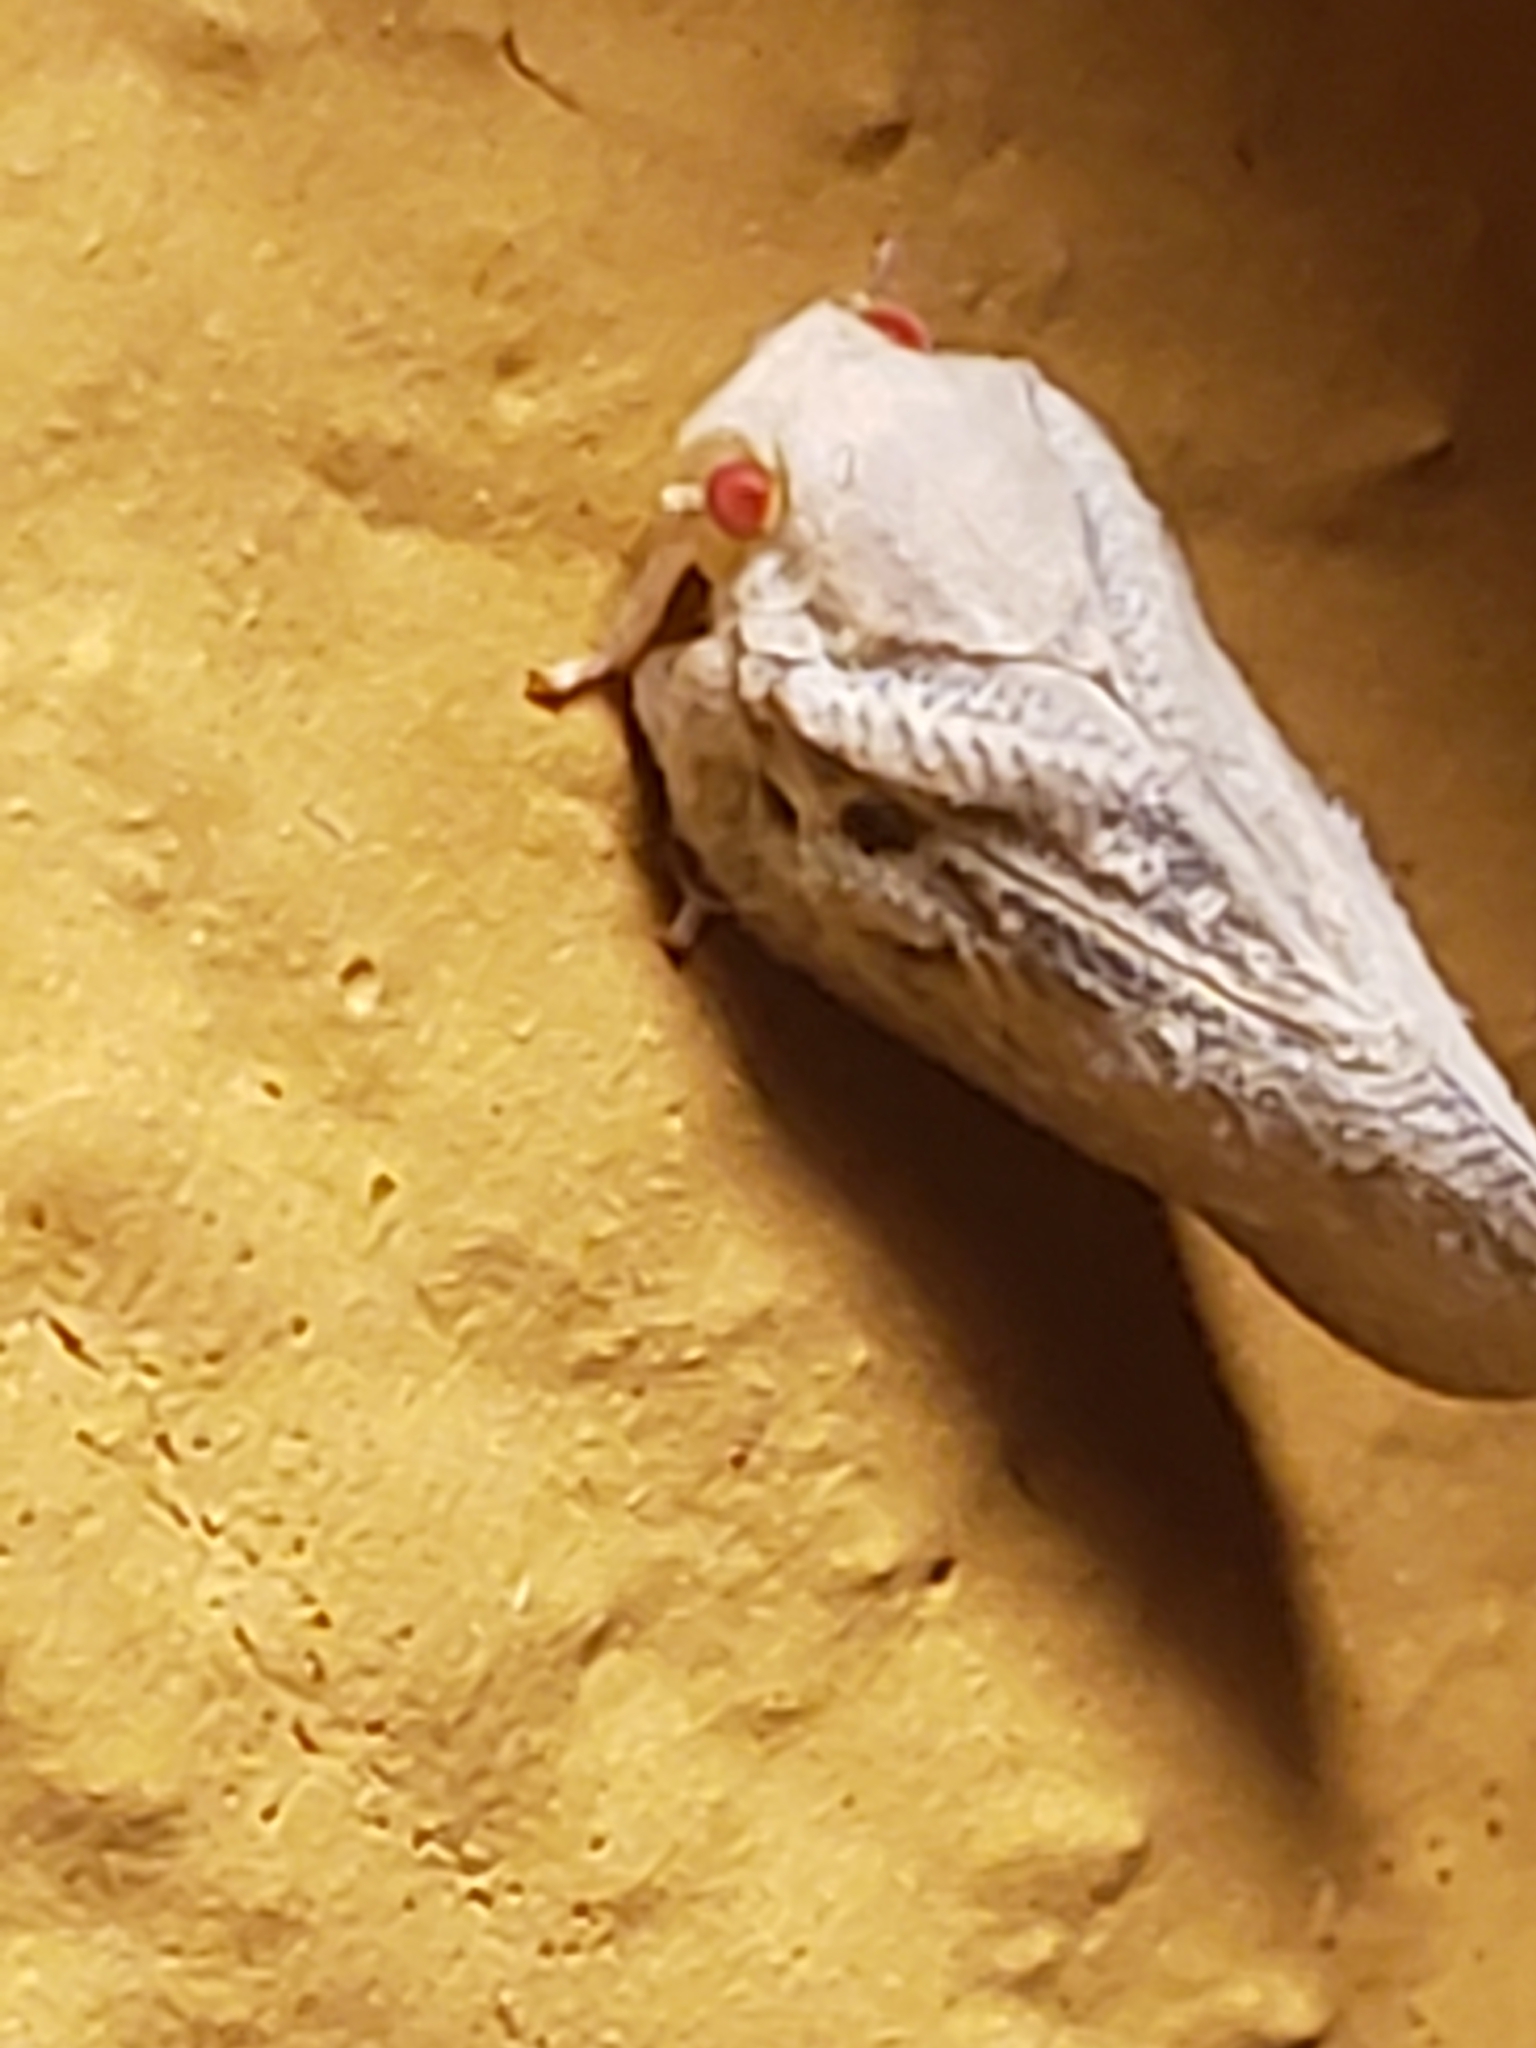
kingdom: Animalia
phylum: Arthropoda
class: Insecta
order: Hemiptera
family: Flatidae
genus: Metcalfa
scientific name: Metcalfa pruinosa
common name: Citrus flatid planthopper
